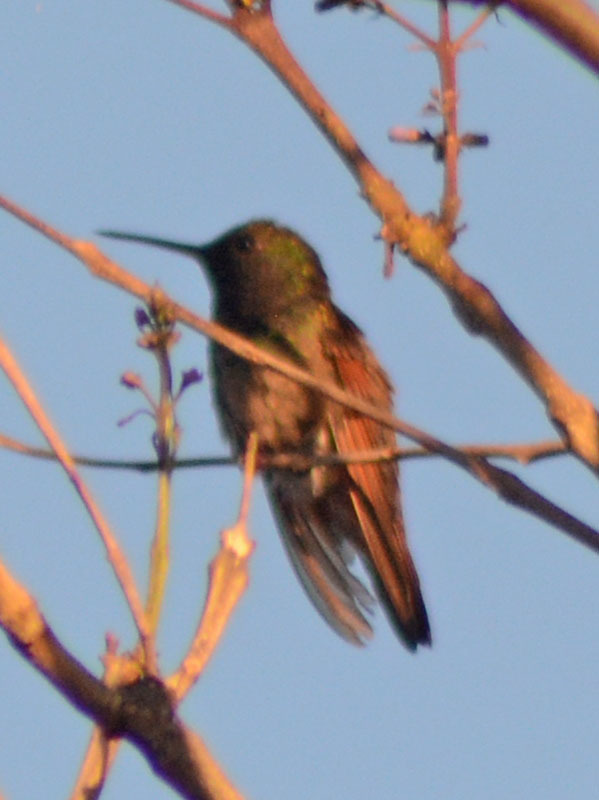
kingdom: Animalia
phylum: Chordata
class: Aves
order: Apodiformes
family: Trochilidae
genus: Saucerottia
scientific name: Saucerottia beryllina
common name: Berylline hummingbird
